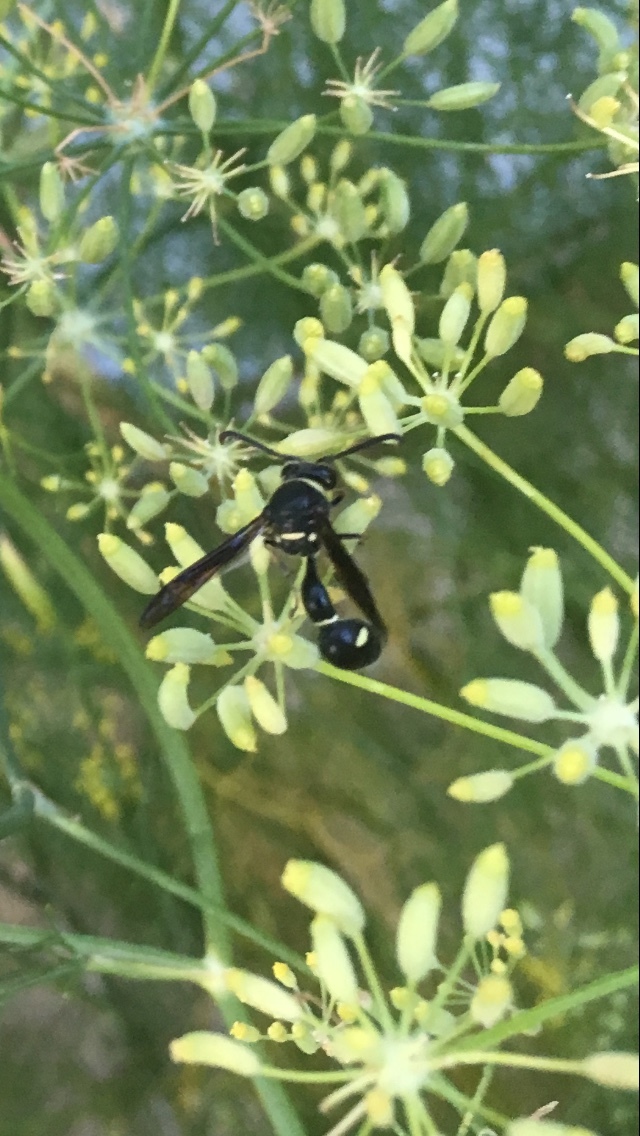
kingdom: Animalia
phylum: Arthropoda
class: Insecta
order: Hymenoptera
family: Vespidae
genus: Eumenes
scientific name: Eumenes fraternus
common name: Fraternal potter wasp
